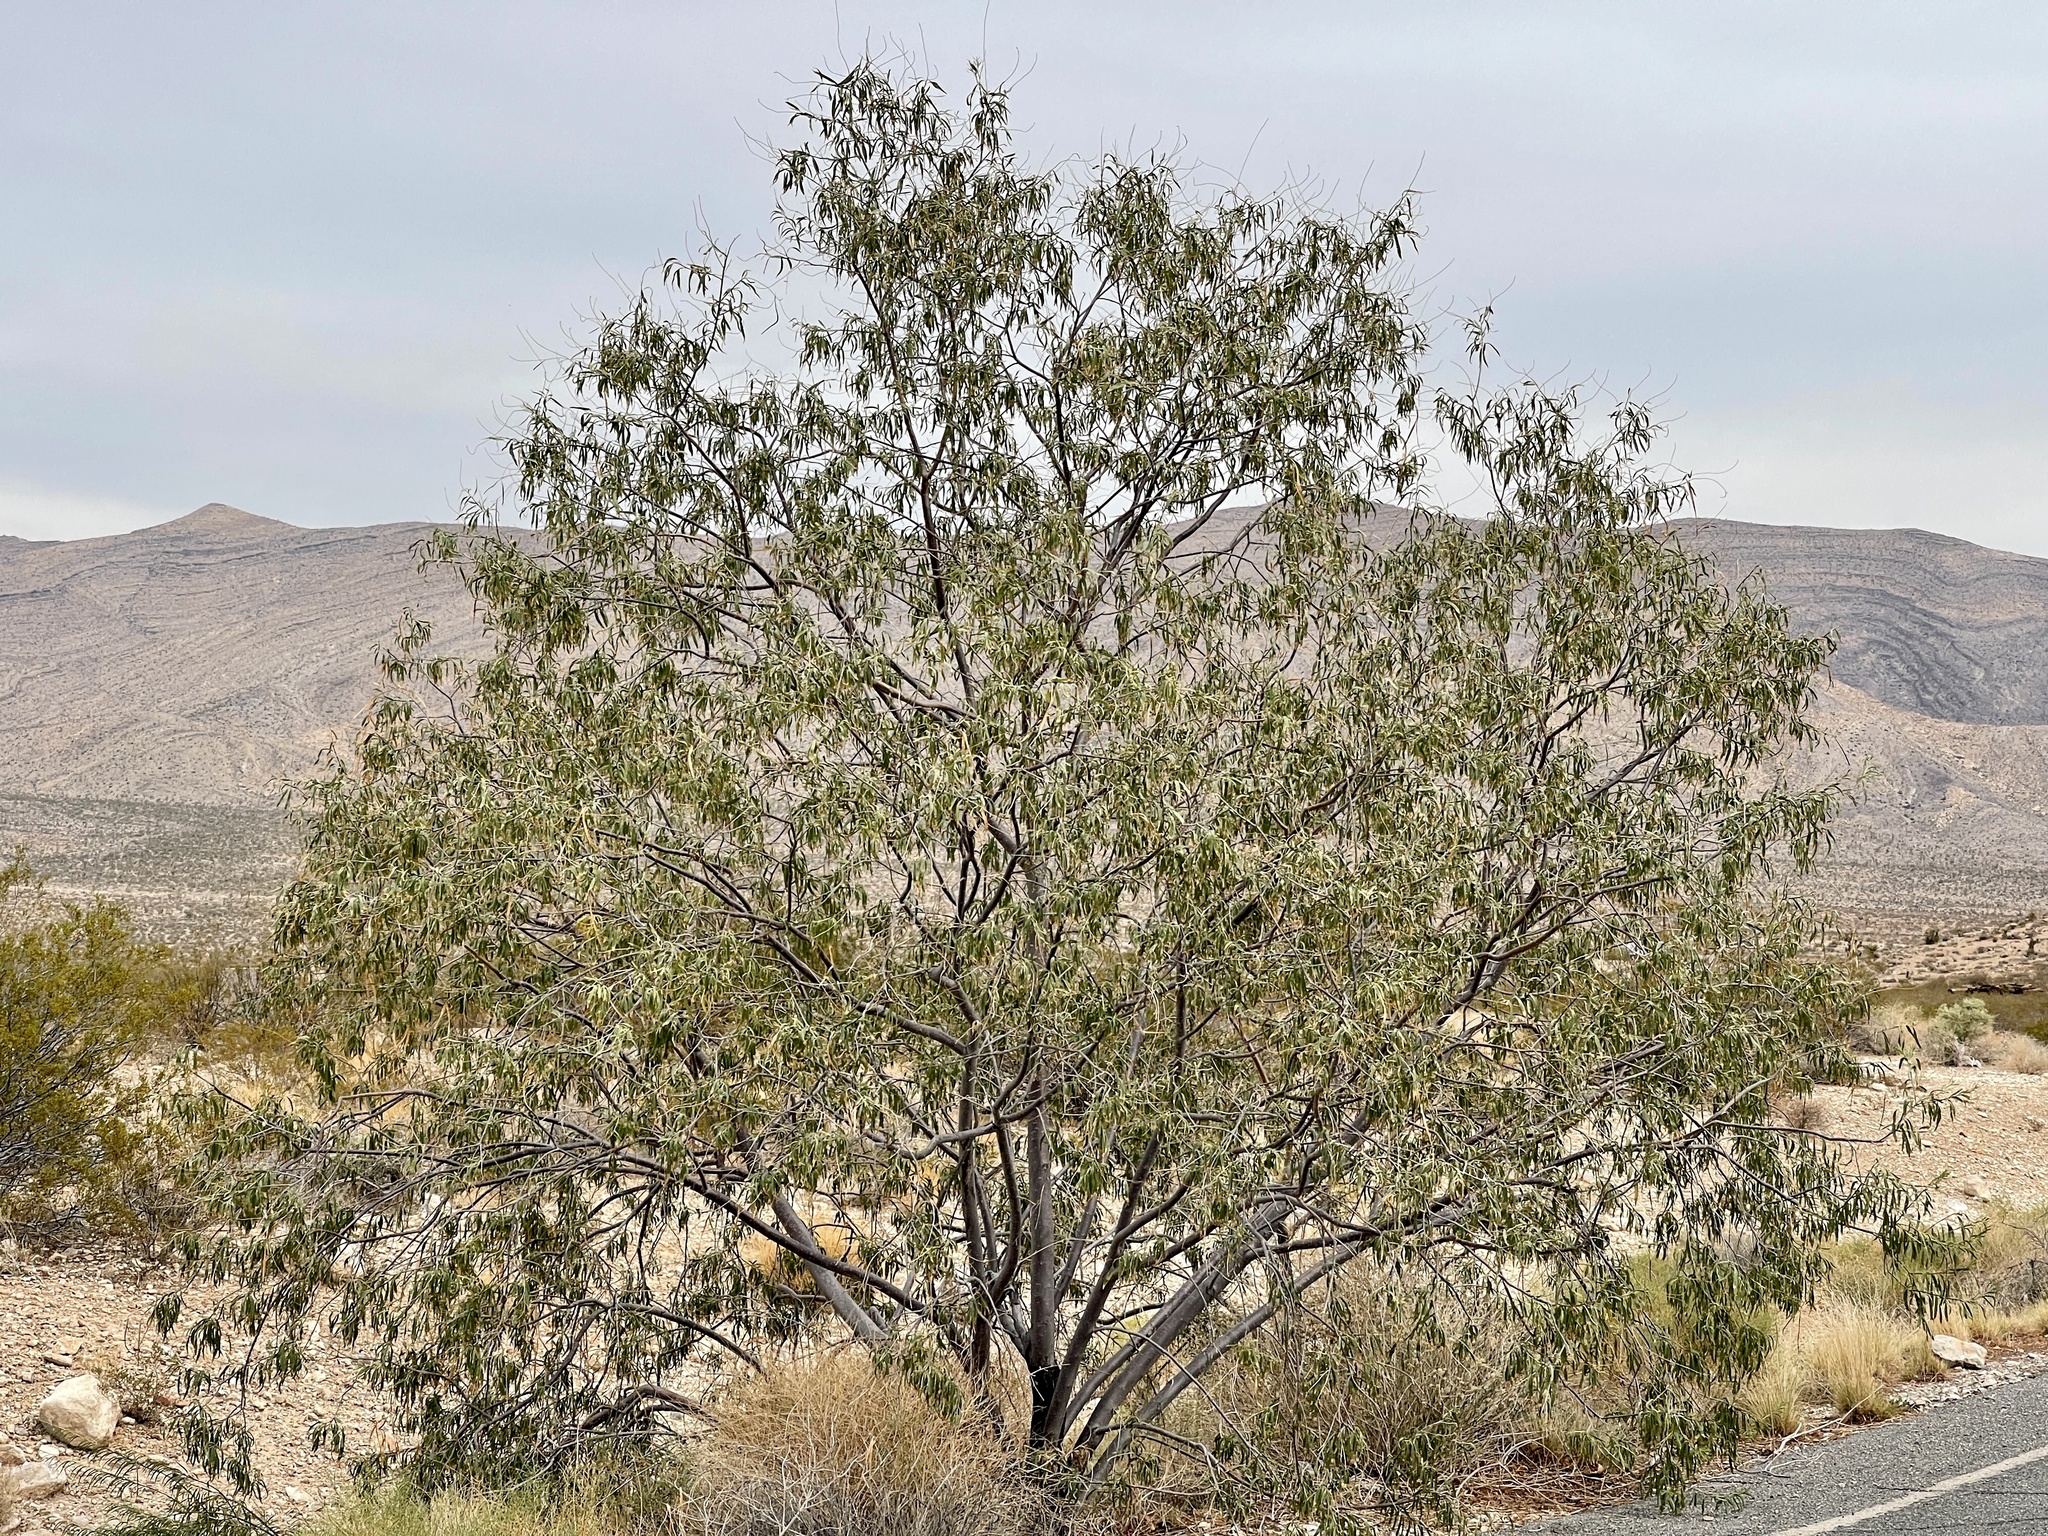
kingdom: Plantae
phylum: Tracheophyta
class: Magnoliopsida
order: Lamiales
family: Bignoniaceae
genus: Chilopsis
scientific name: Chilopsis linearis
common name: Desert-willow
